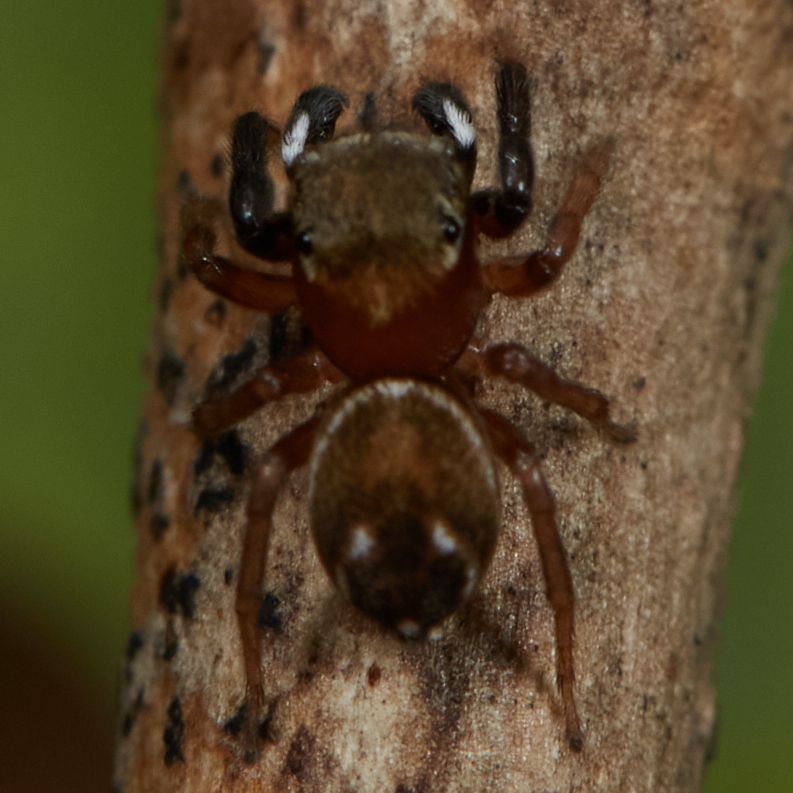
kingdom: Animalia
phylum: Arthropoda
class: Arachnida
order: Araneae
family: Salticidae
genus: Chinattus
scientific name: Chinattus parvulus
